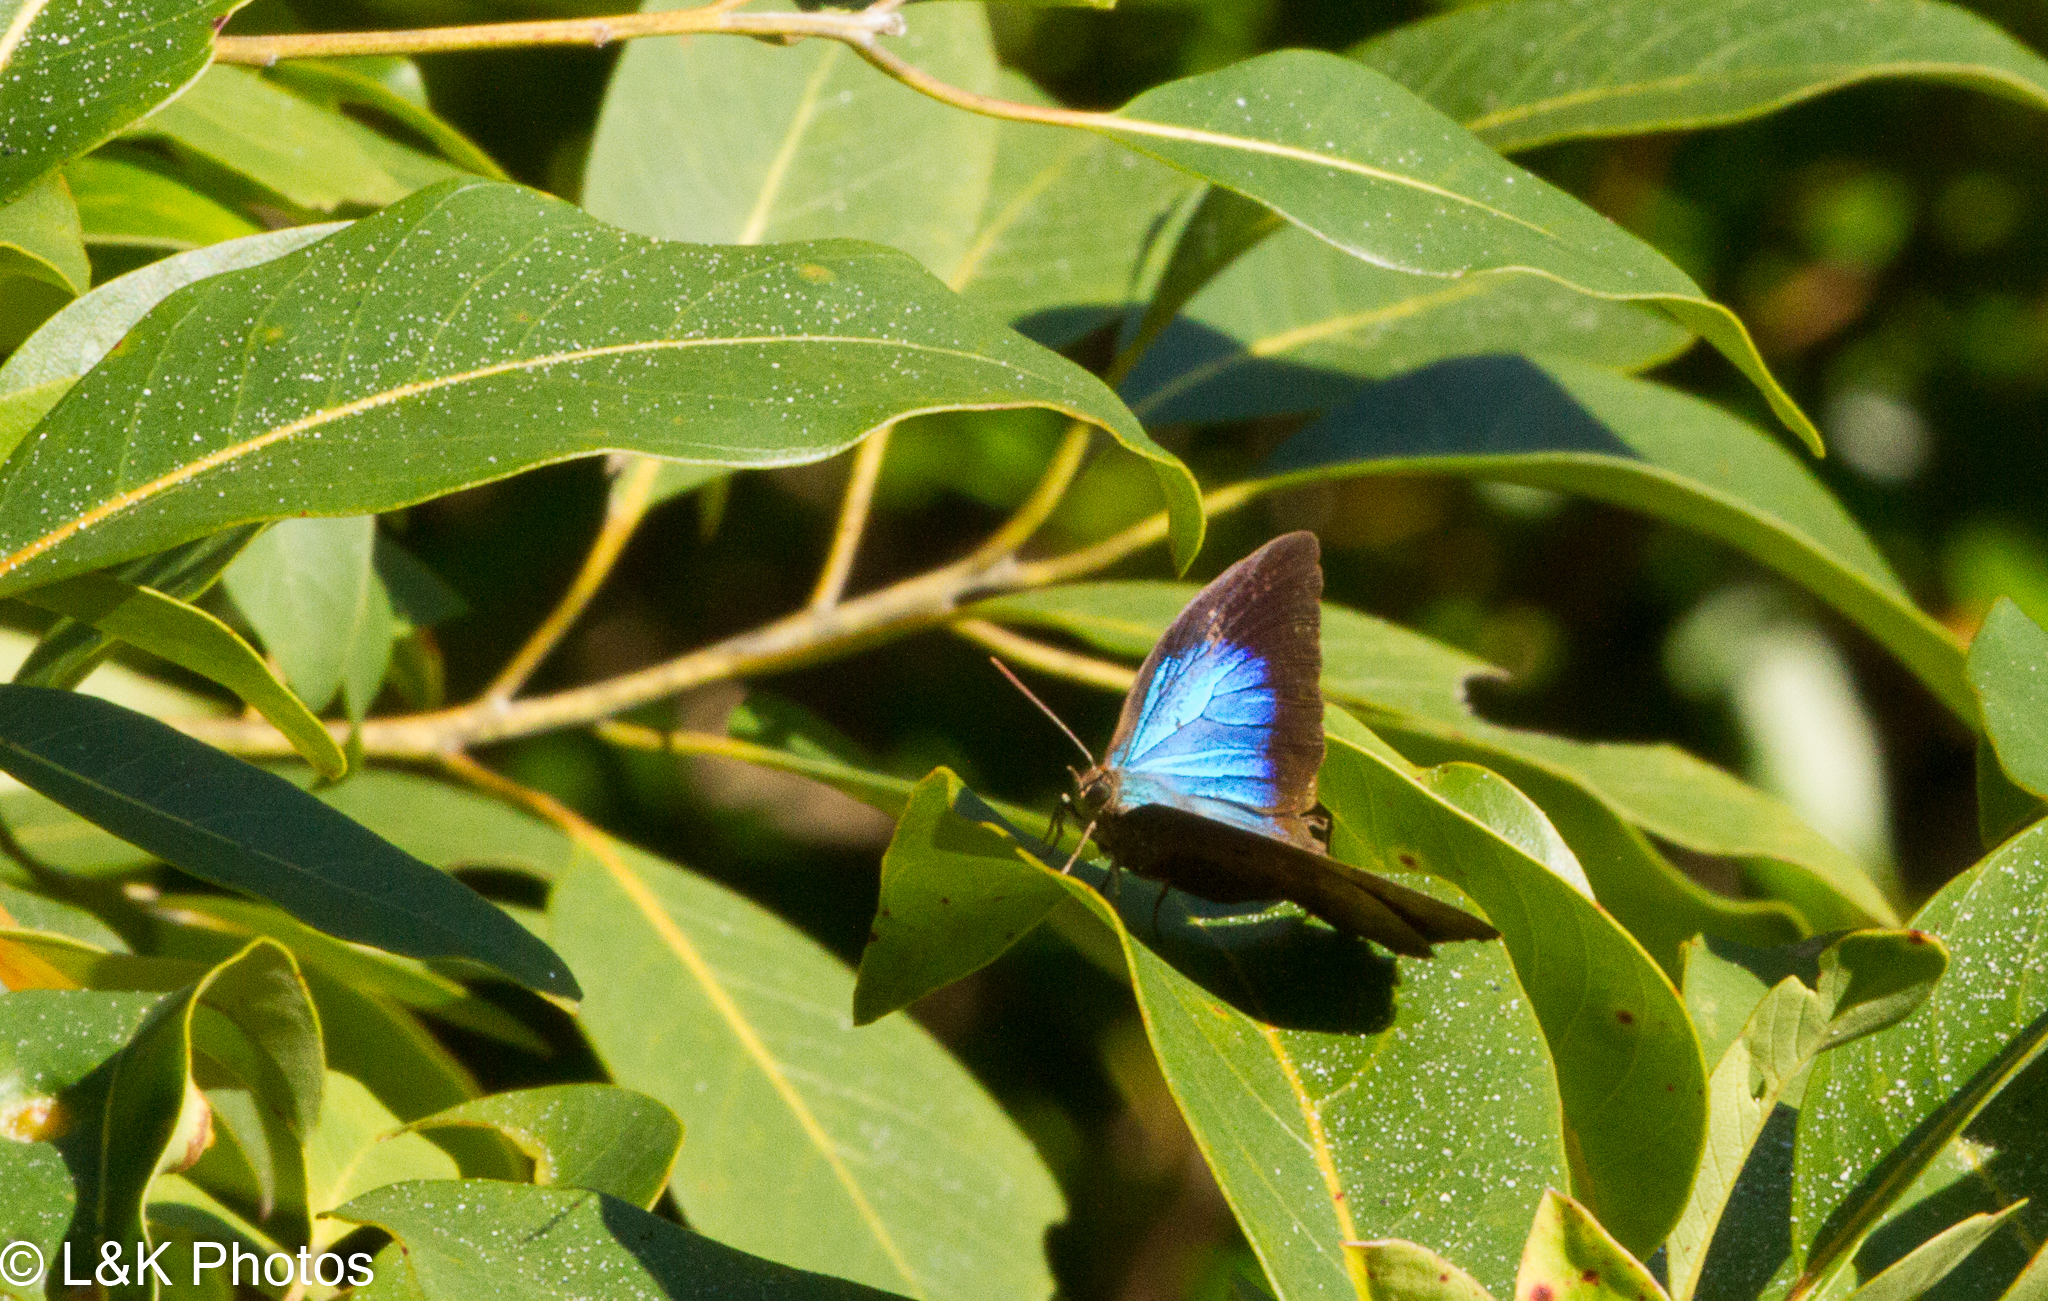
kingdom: Animalia
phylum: Arthropoda
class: Insecta
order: Lepidoptera
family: Papilionidae
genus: Papilio
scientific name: Papilio ulysses
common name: Blue emperor
